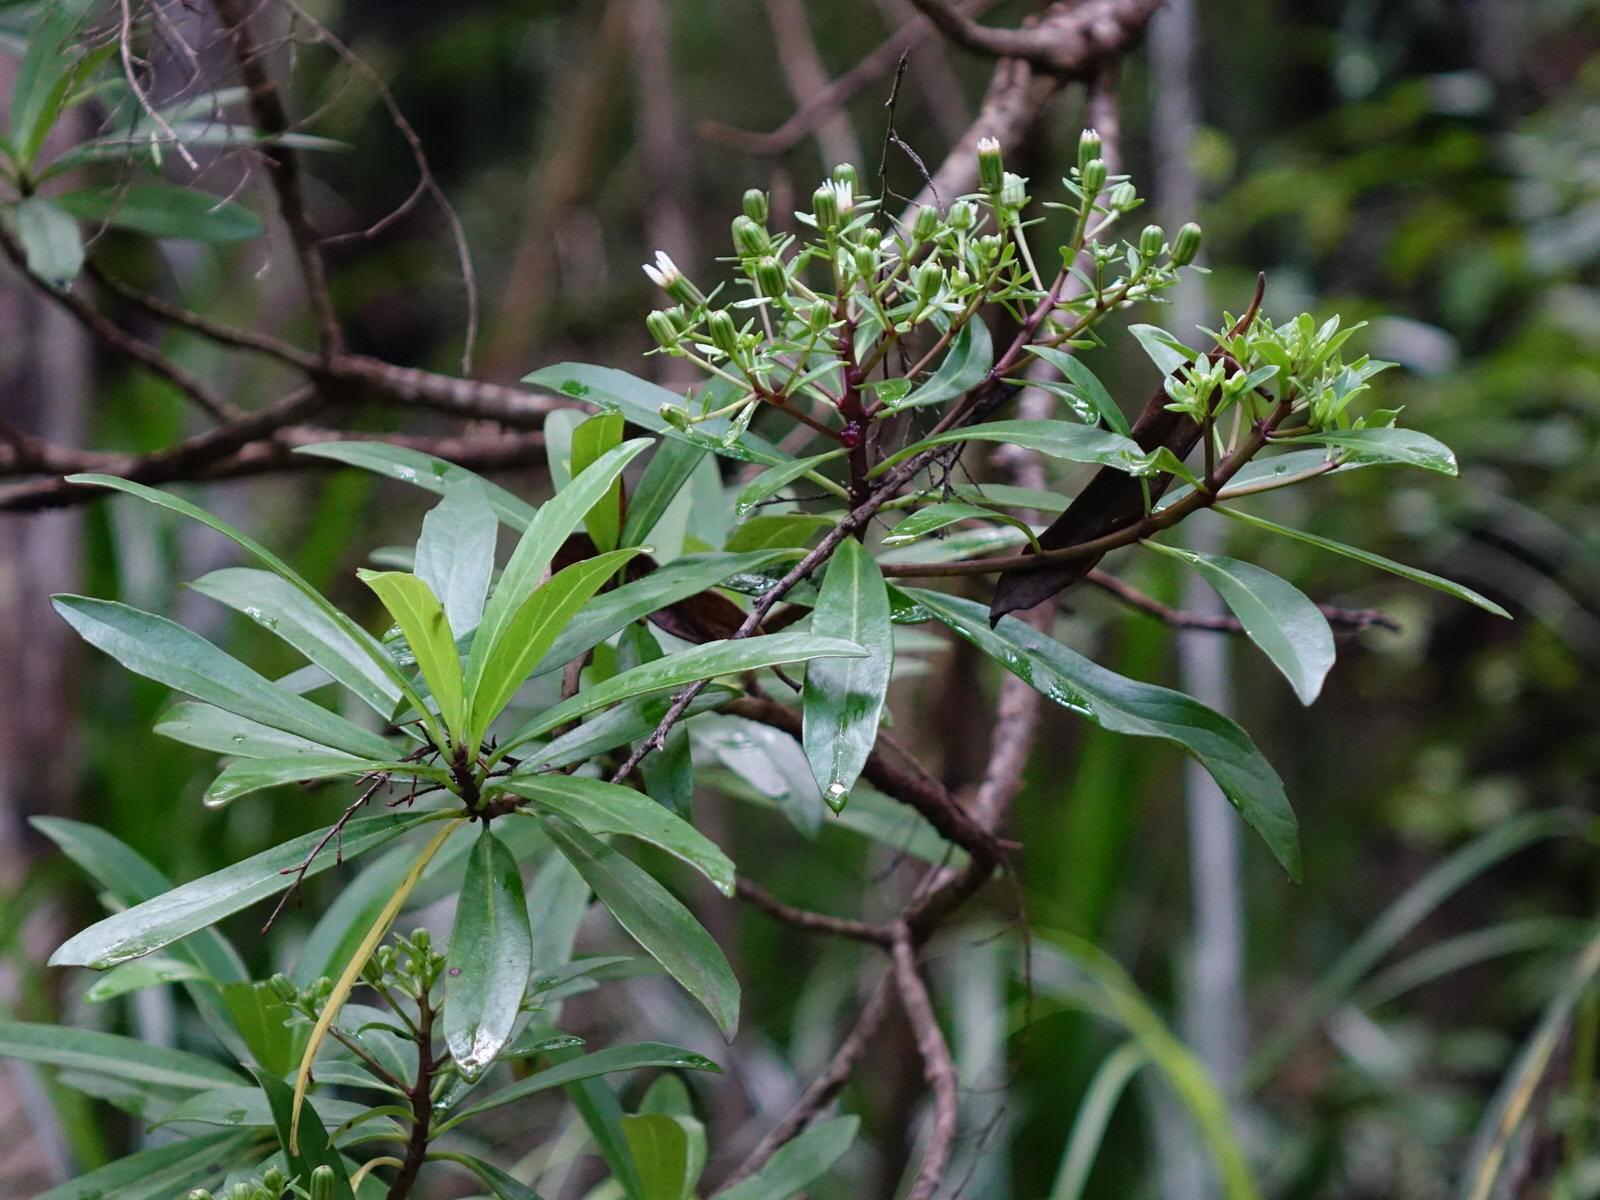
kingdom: Plantae
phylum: Tracheophyta
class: Magnoliopsida
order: Asterales
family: Asteraceae
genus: Brachyglottis
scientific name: Brachyglottis kirkii
